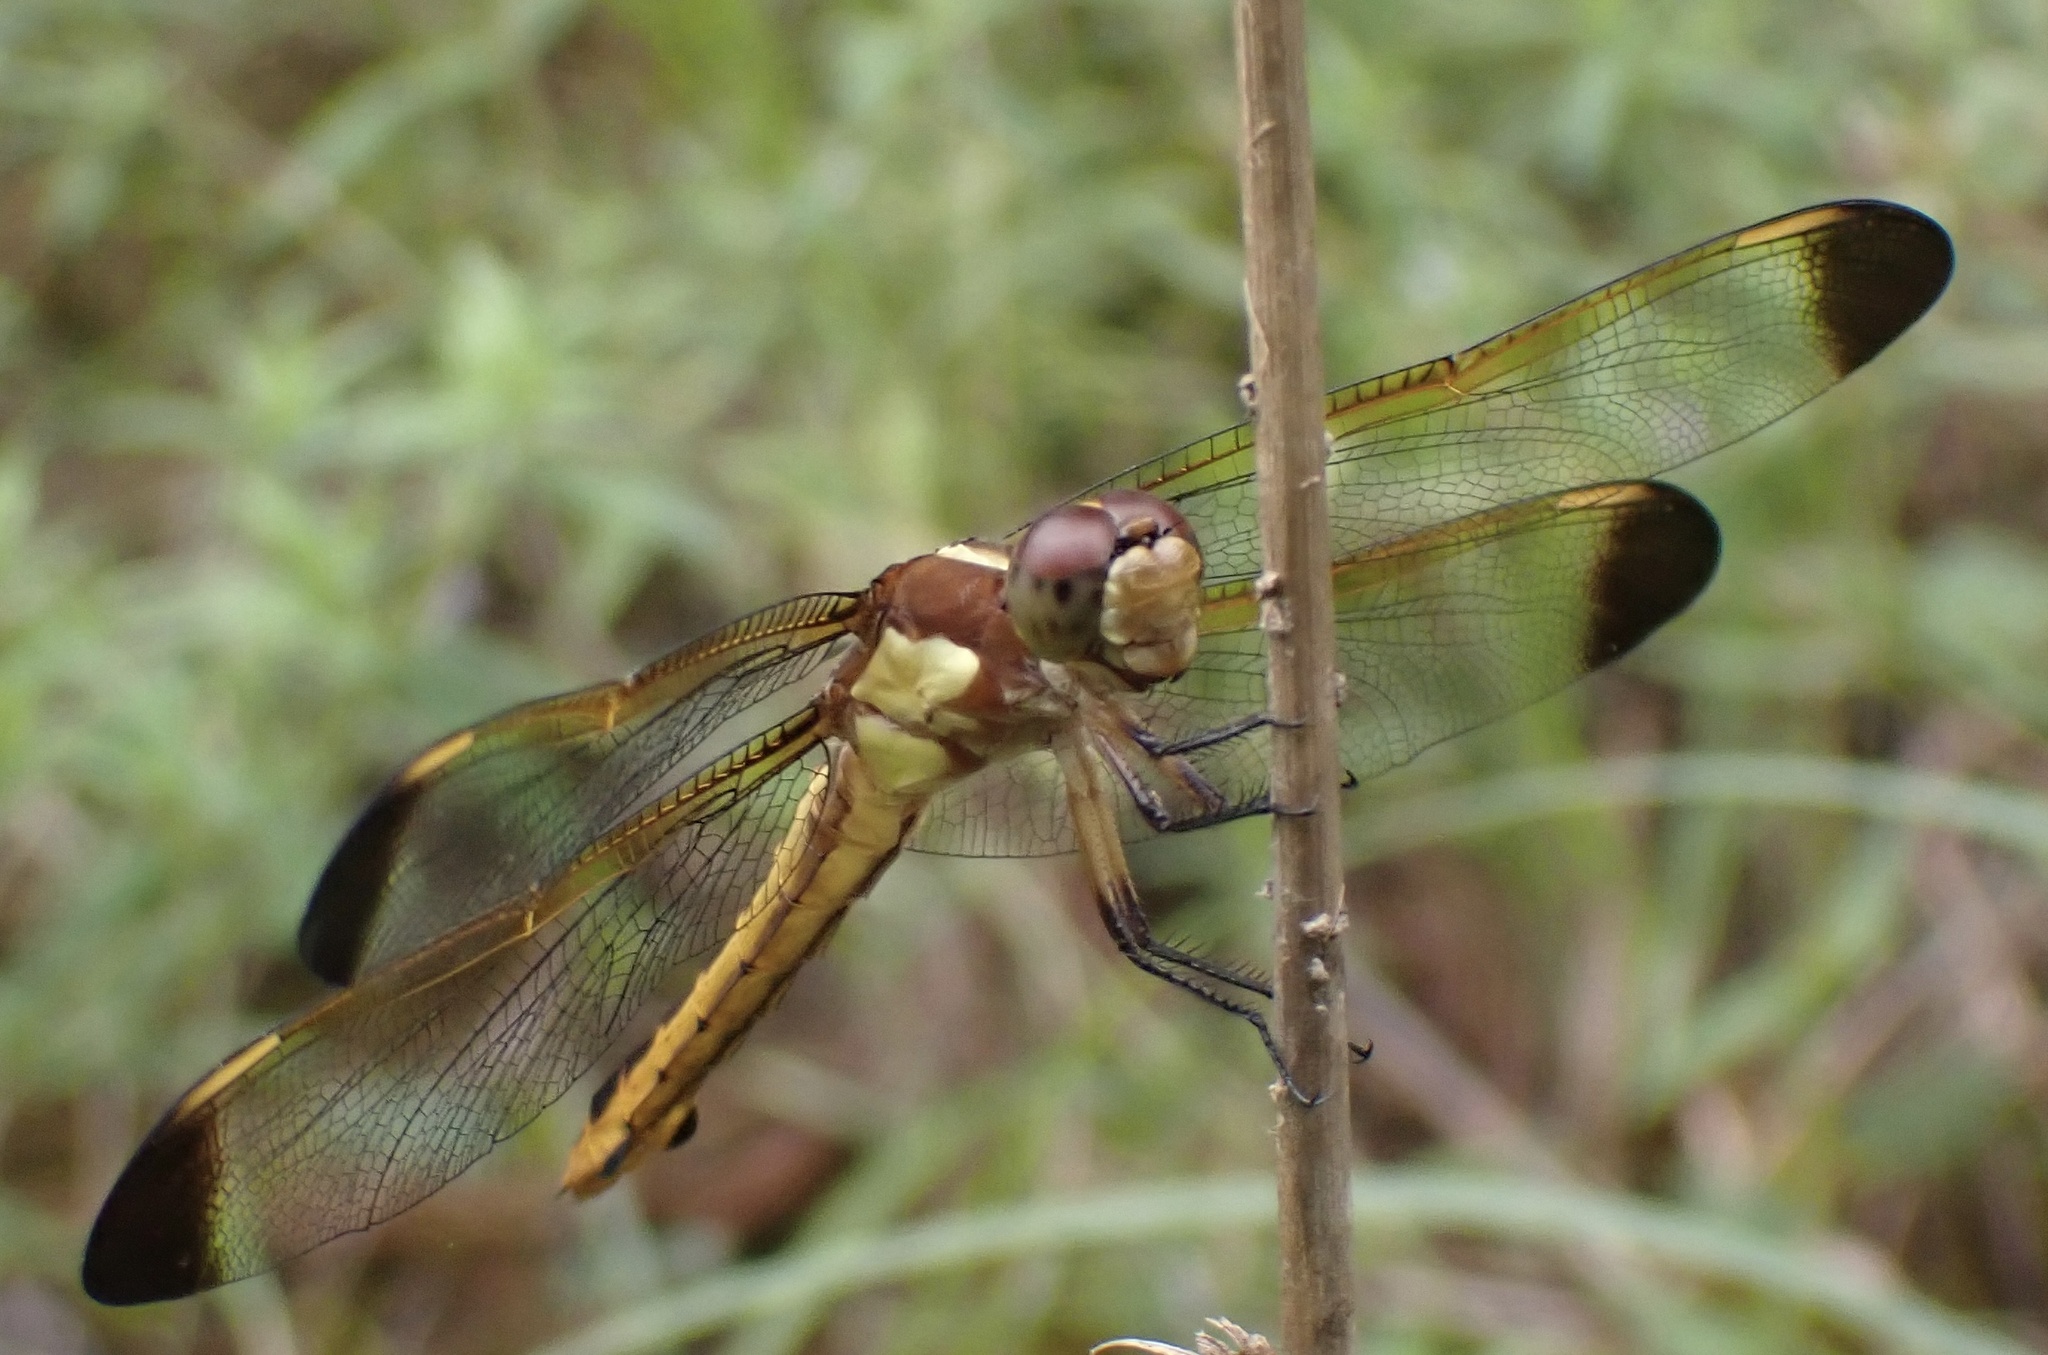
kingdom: Animalia
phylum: Arthropoda
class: Insecta
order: Odonata
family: Libellulidae
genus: Libellula
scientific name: Libellula flavida
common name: Yellow-sided skimmer
